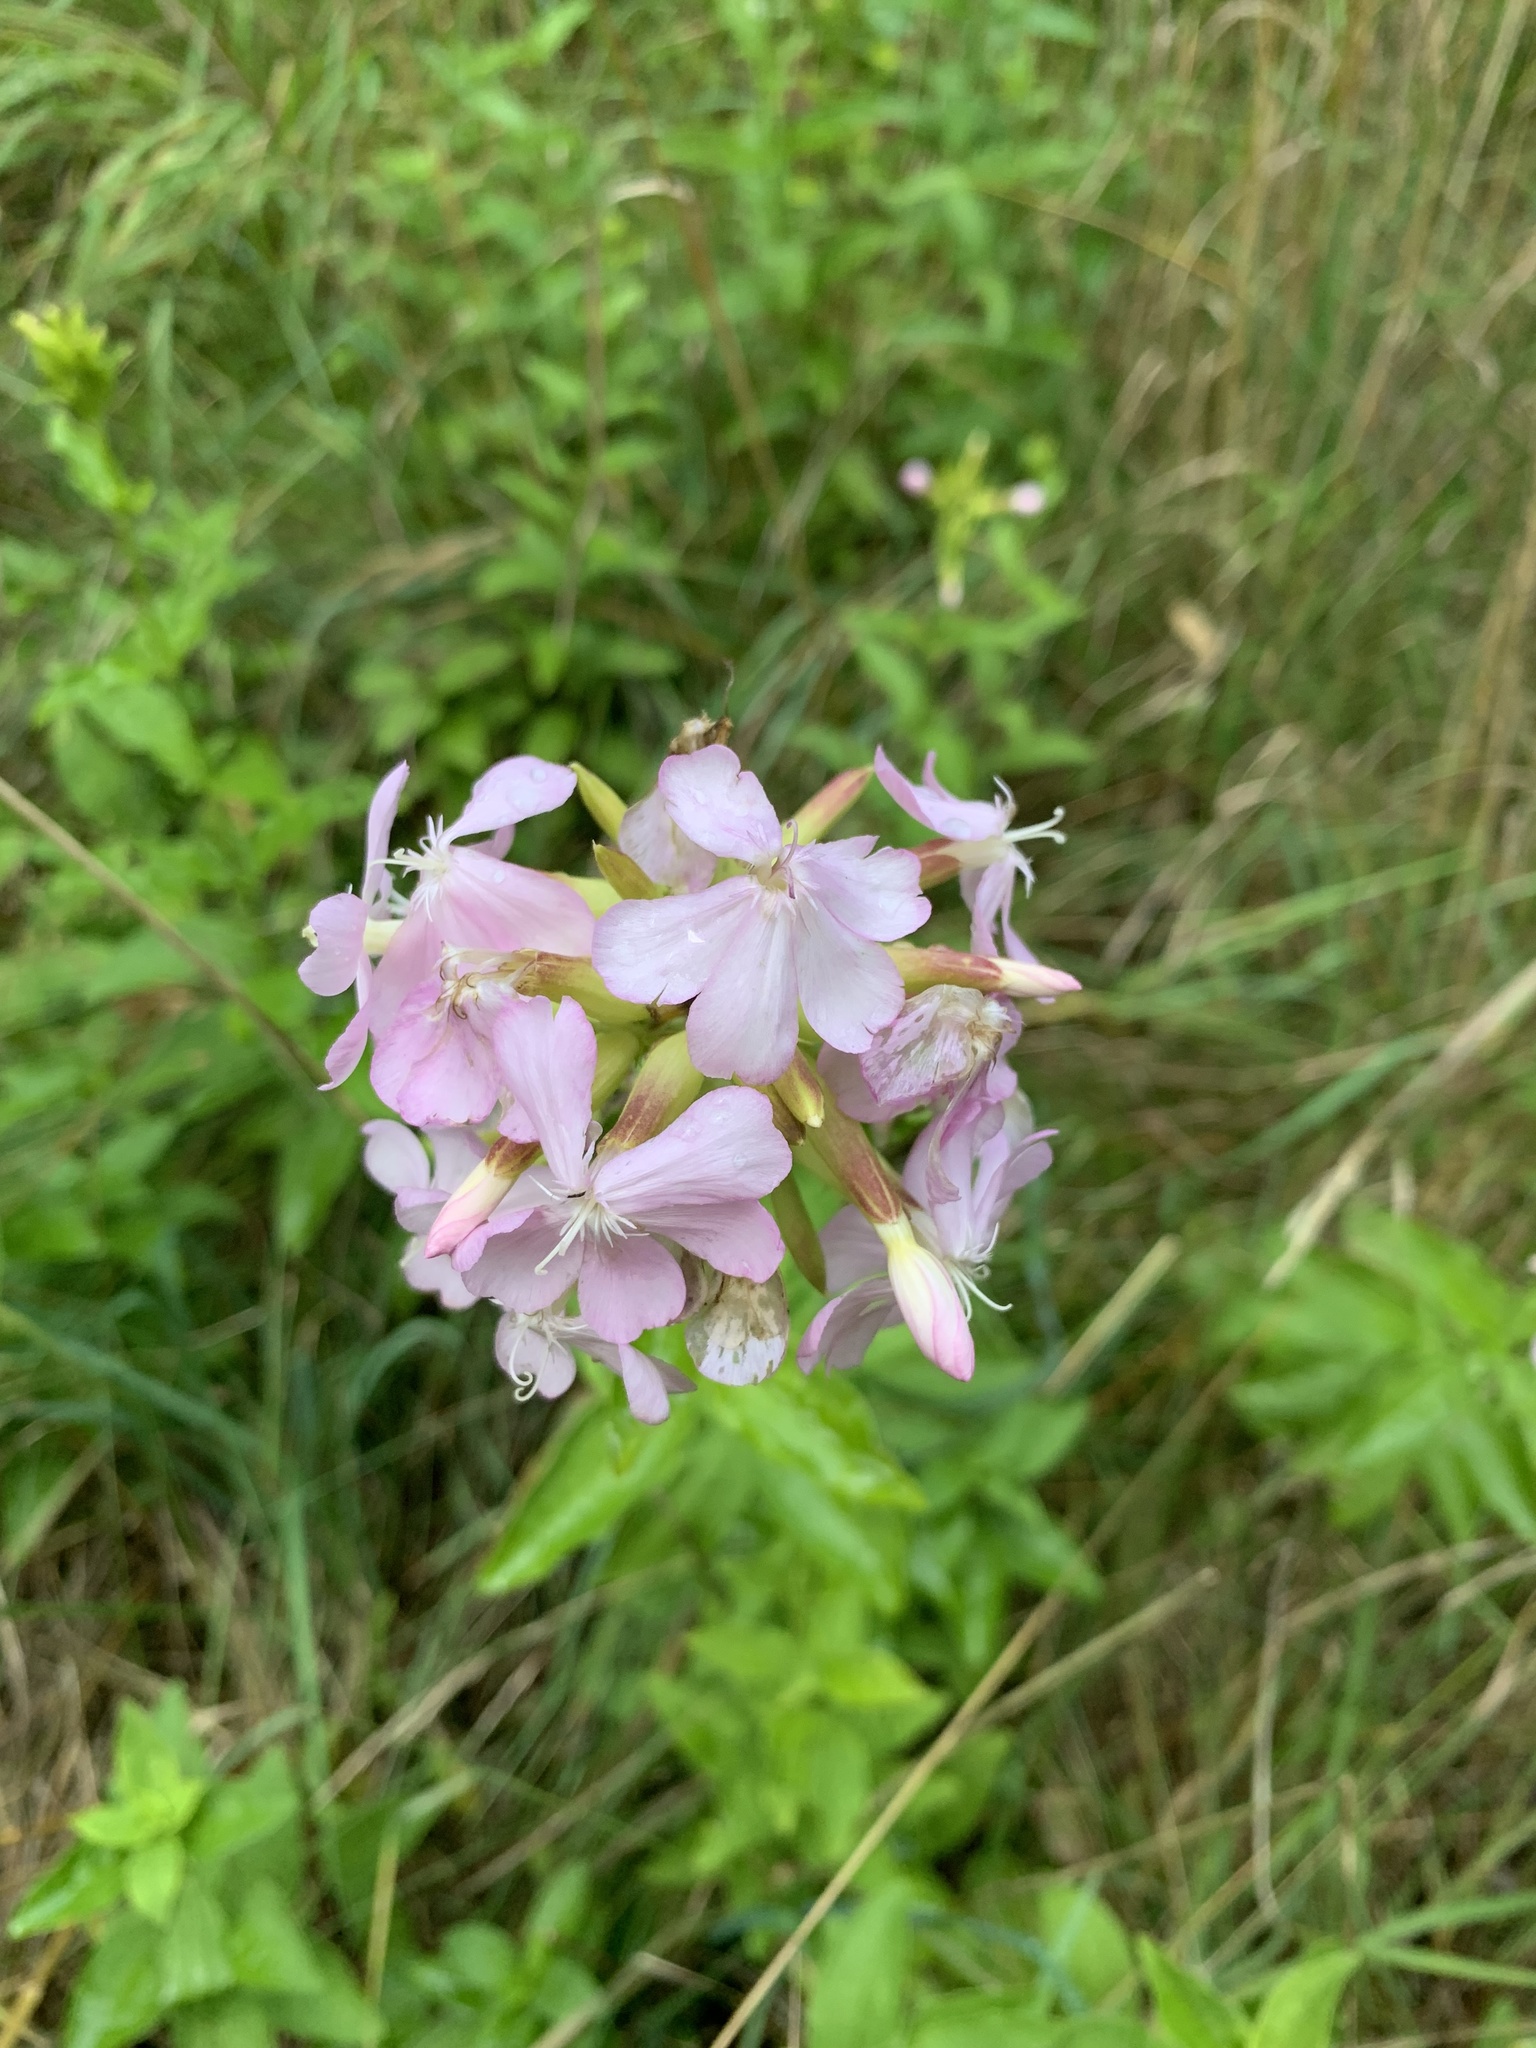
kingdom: Plantae
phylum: Tracheophyta
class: Magnoliopsida
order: Caryophyllales
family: Caryophyllaceae
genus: Saponaria
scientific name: Saponaria officinalis
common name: Soapwort
